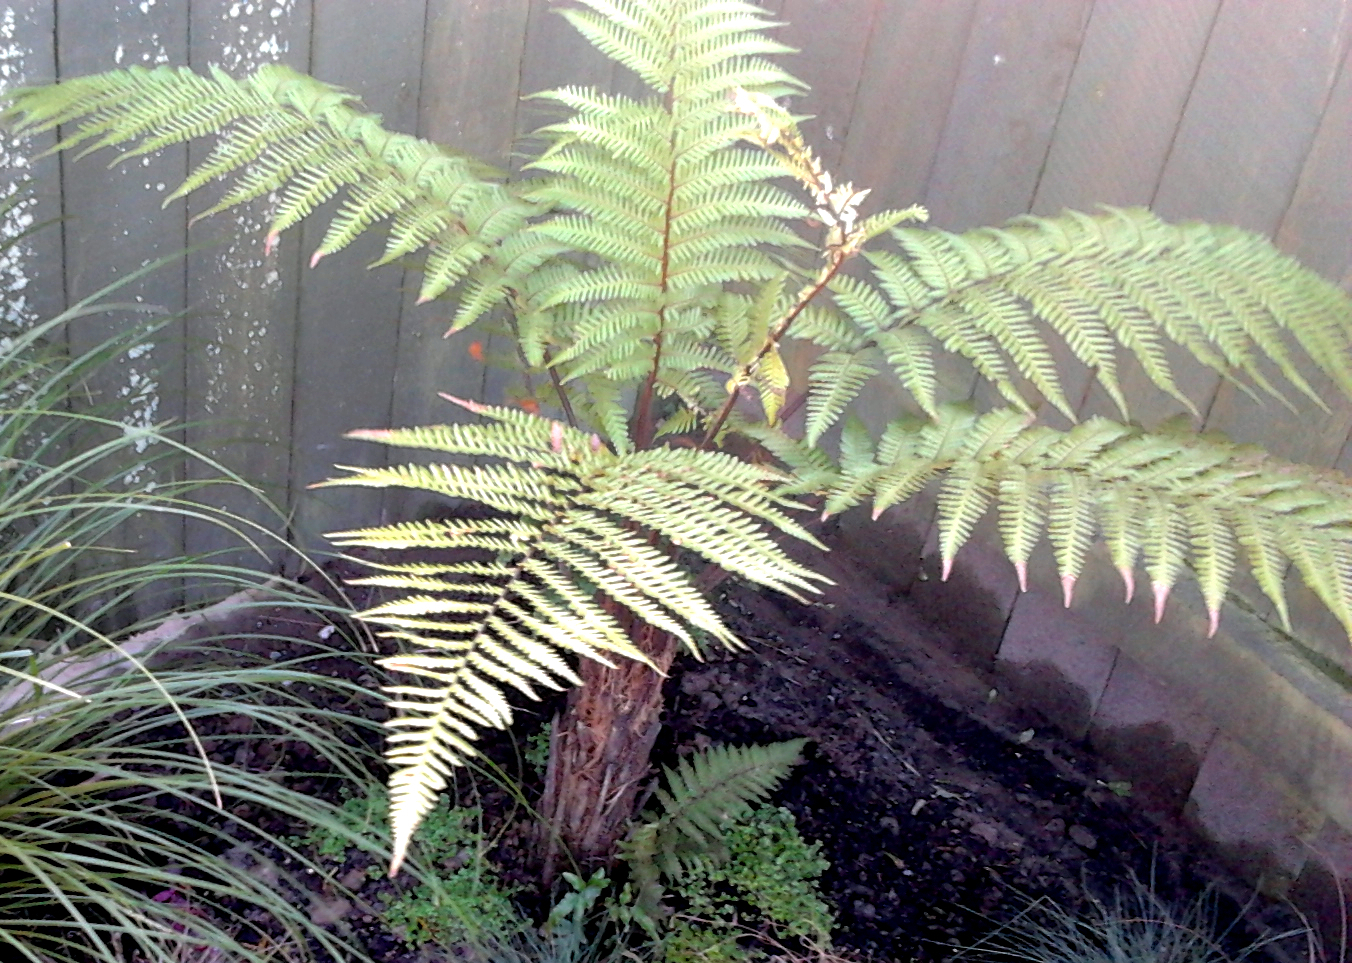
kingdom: Plantae
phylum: Tracheophyta
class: Polypodiopsida
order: Cyatheales
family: Dicksoniaceae
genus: Dicksonia
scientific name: Dicksonia squarrosa
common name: Hard treefern
